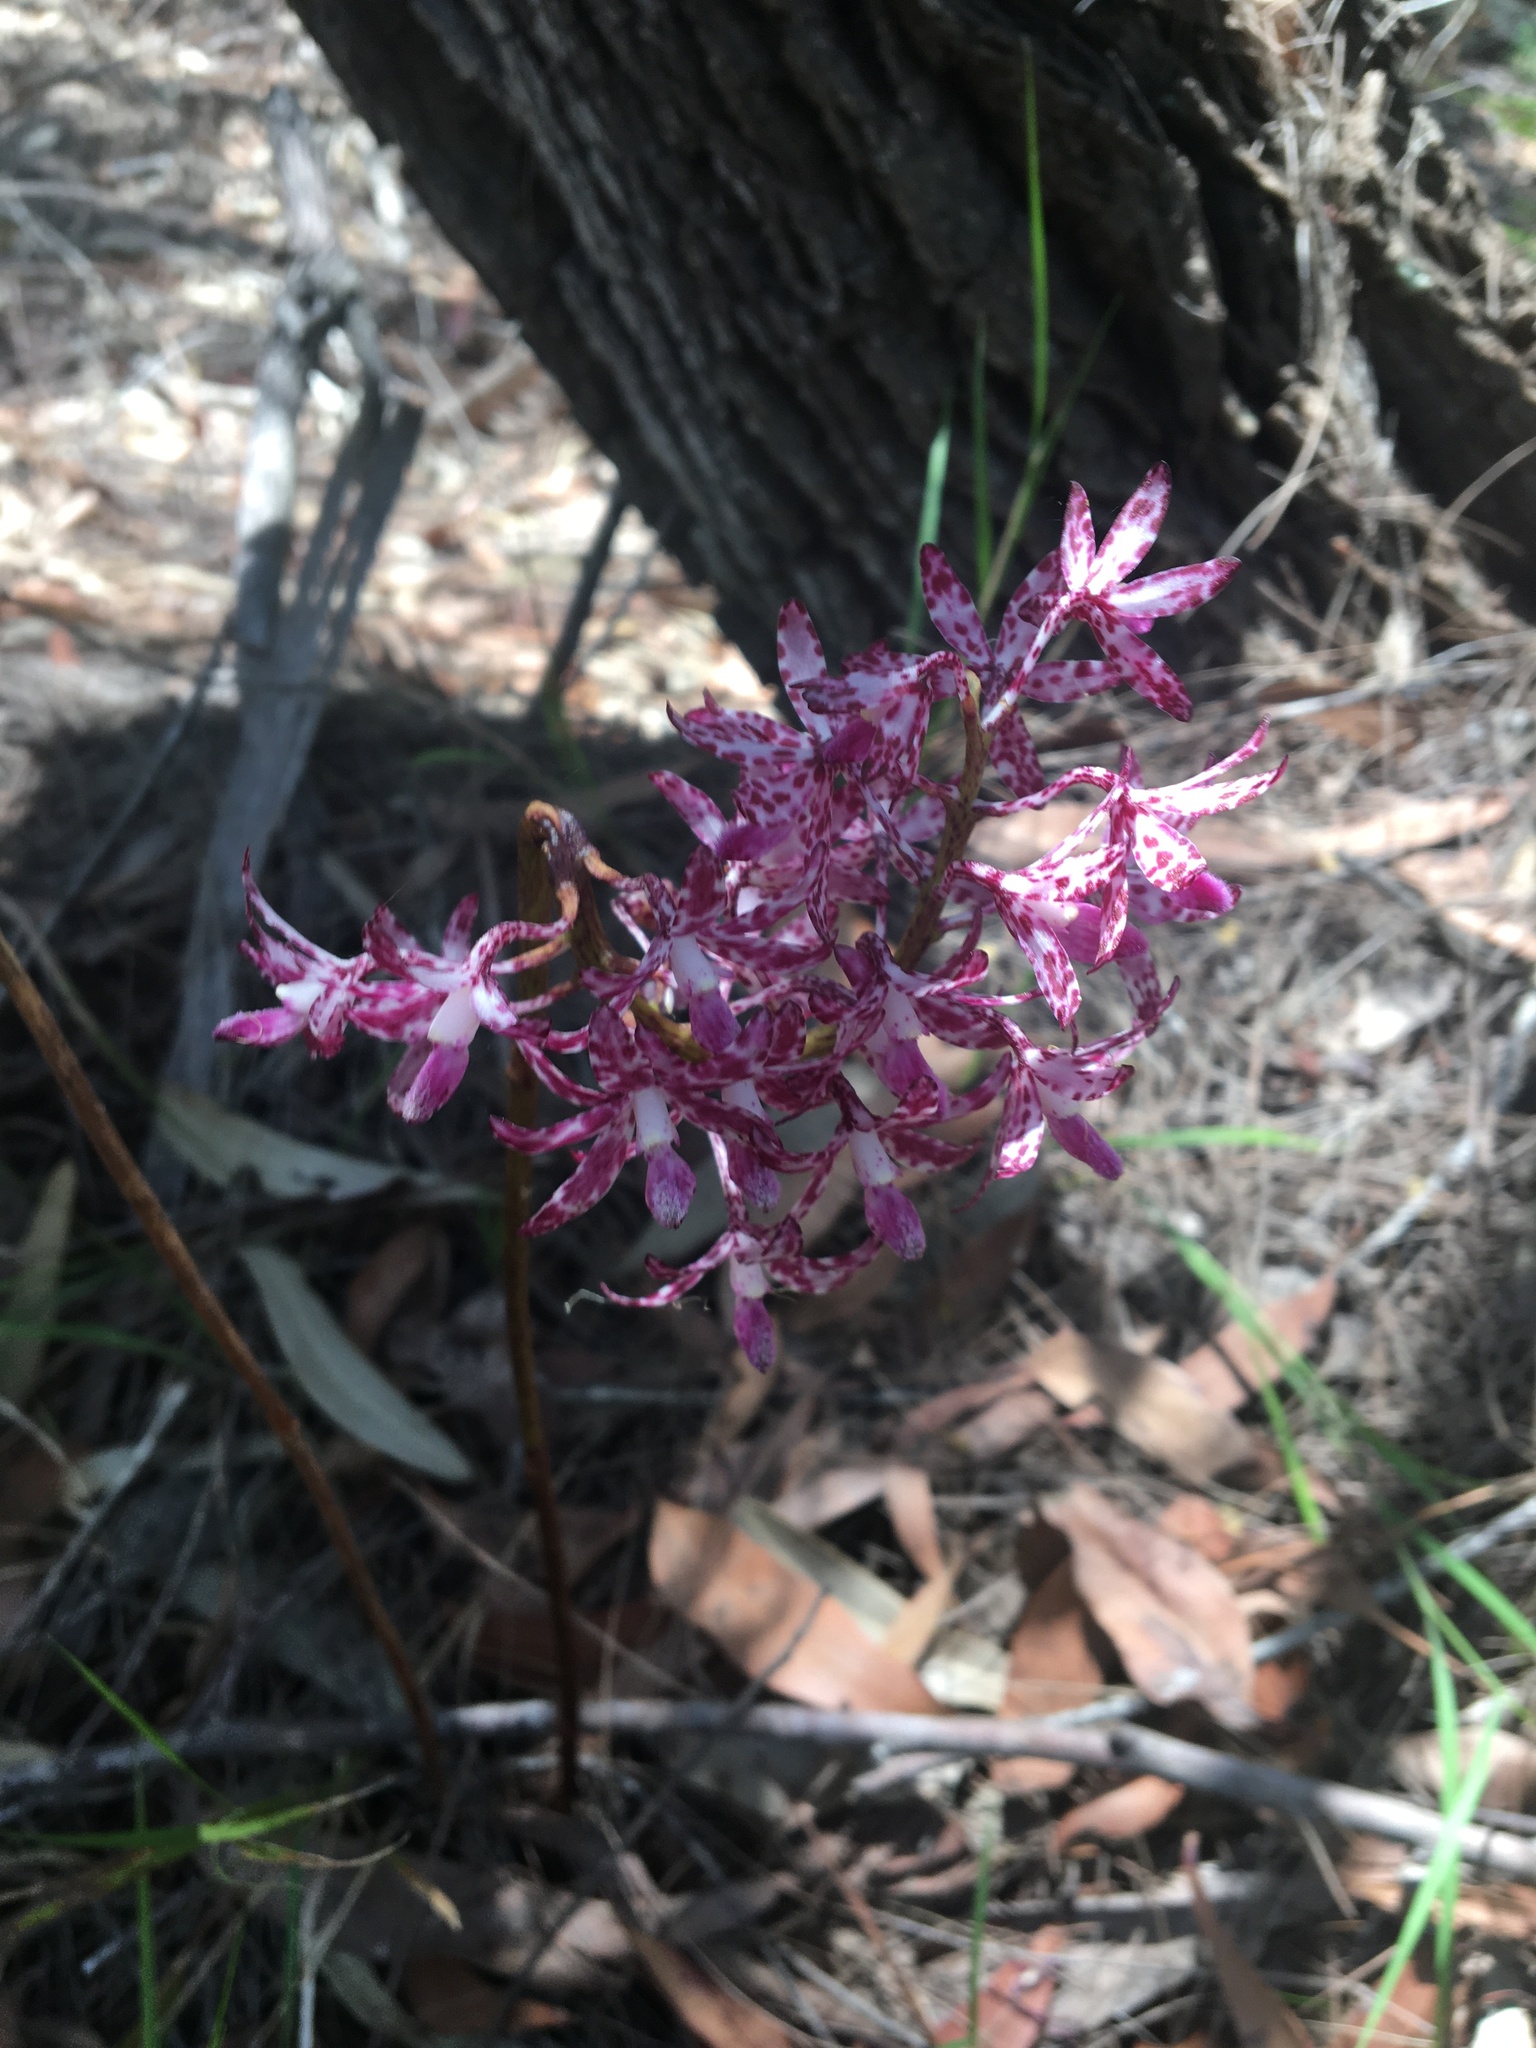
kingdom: Plantae
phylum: Tracheophyta
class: Liliopsida
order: Asparagales
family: Orchidaceae
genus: Dipodium
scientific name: Dipodium variegatum
